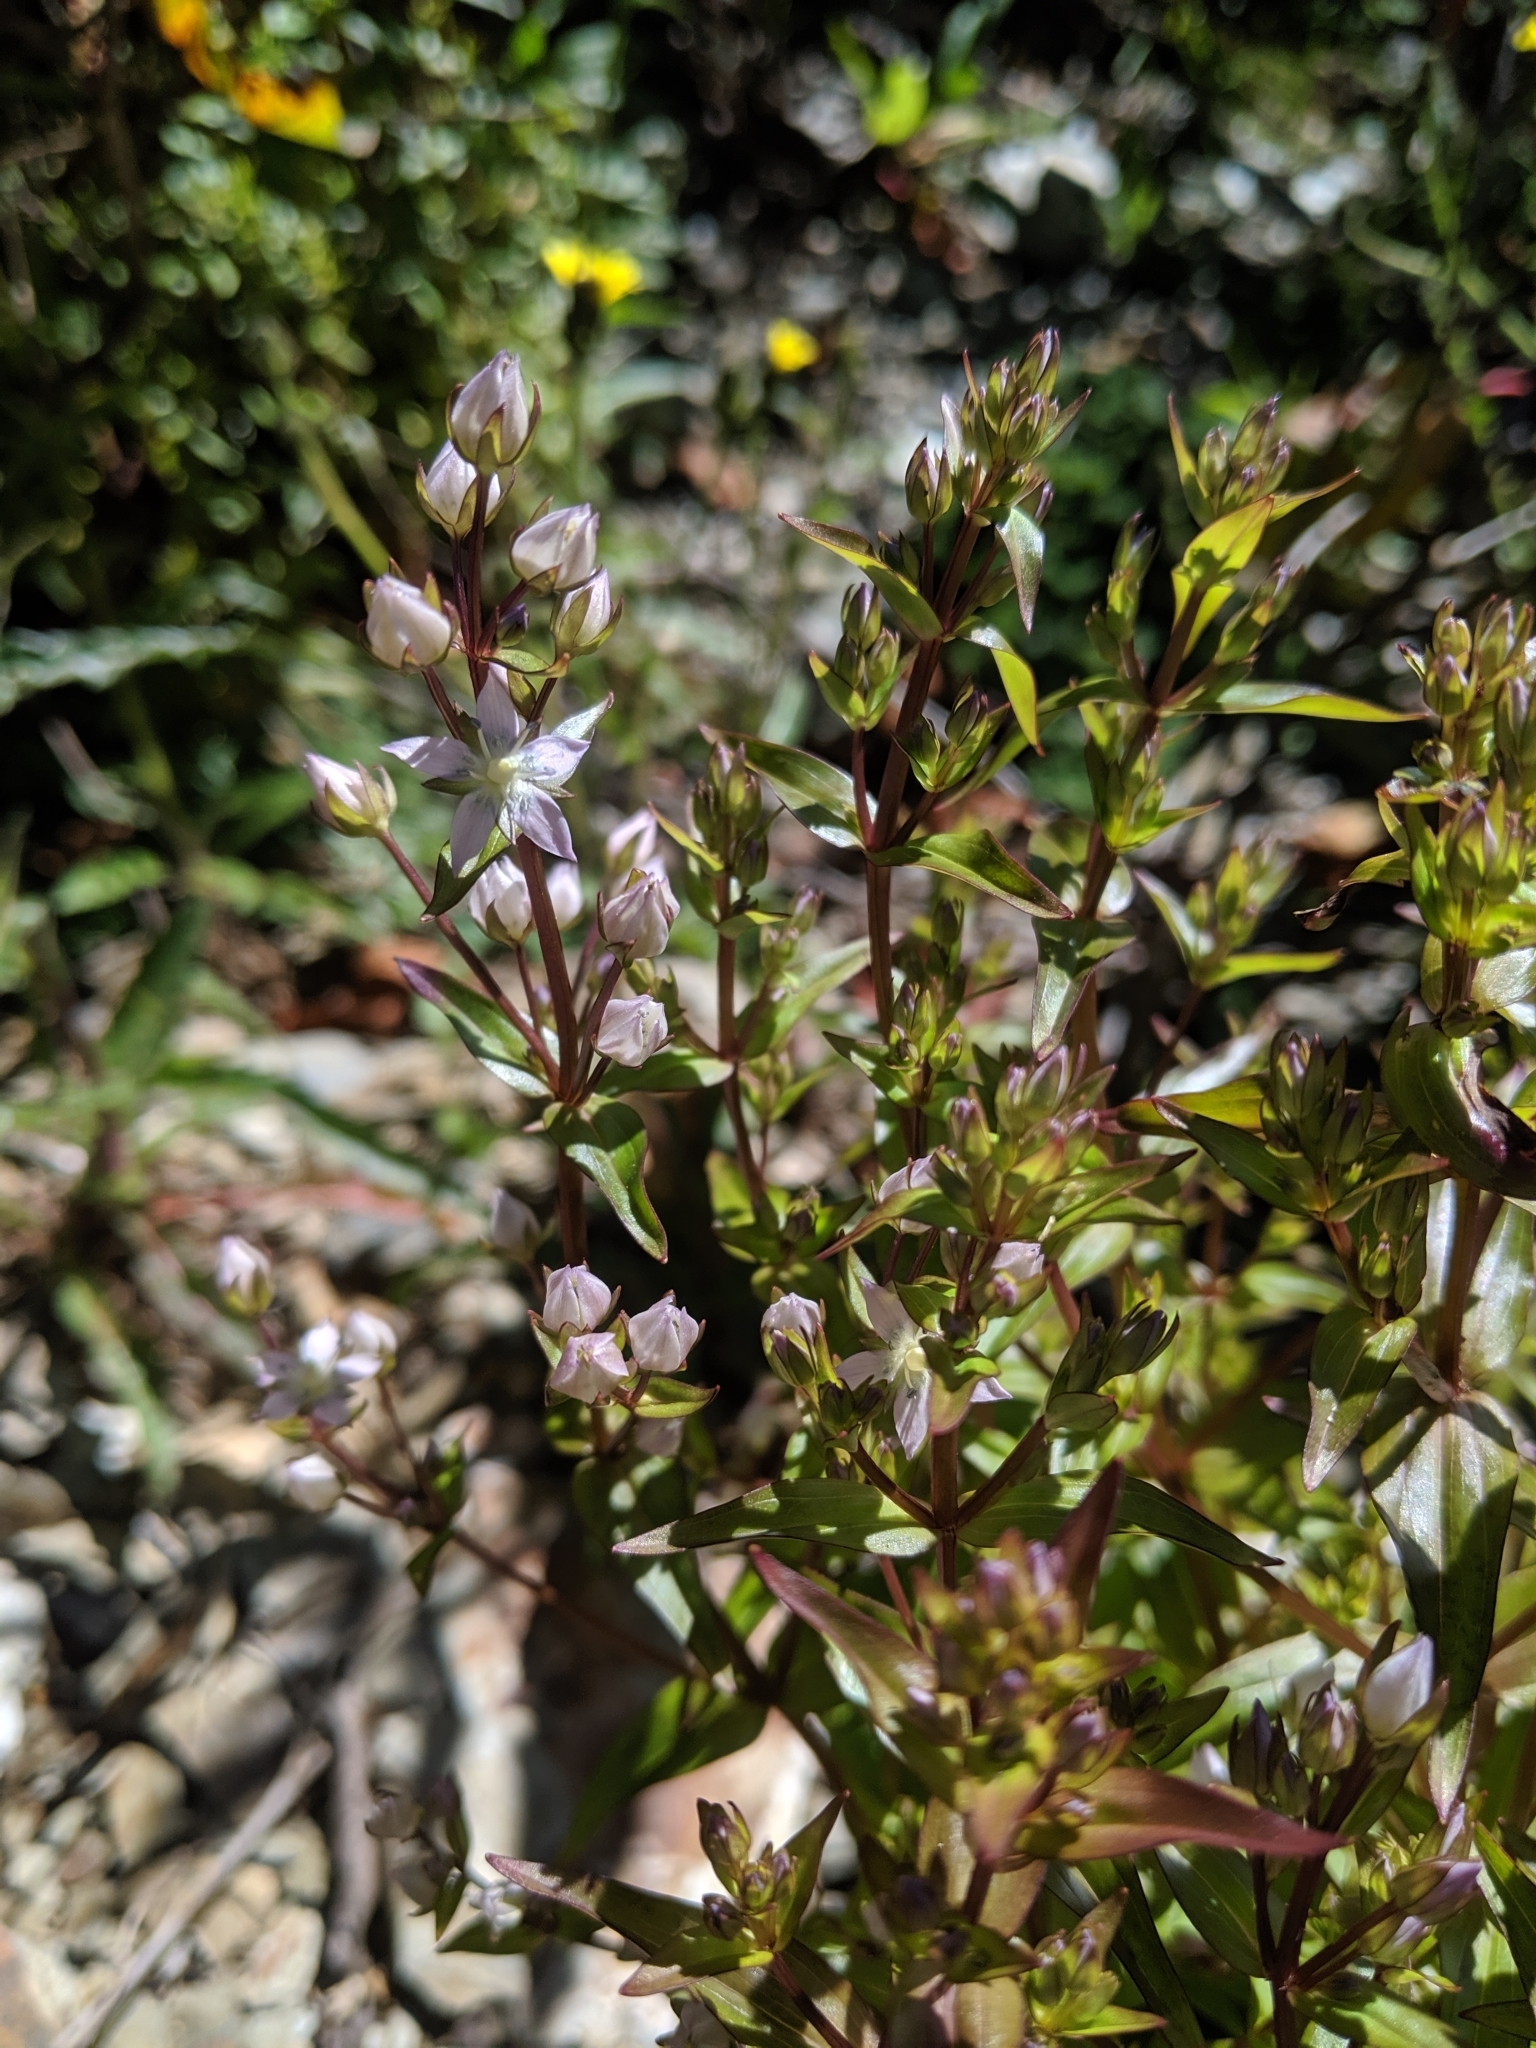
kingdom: Plantae
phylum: Tracheophyta
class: Magnoliopsida
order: Gentianales
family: Gentianaceae
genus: Swertia
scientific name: Swertia macrosperma
